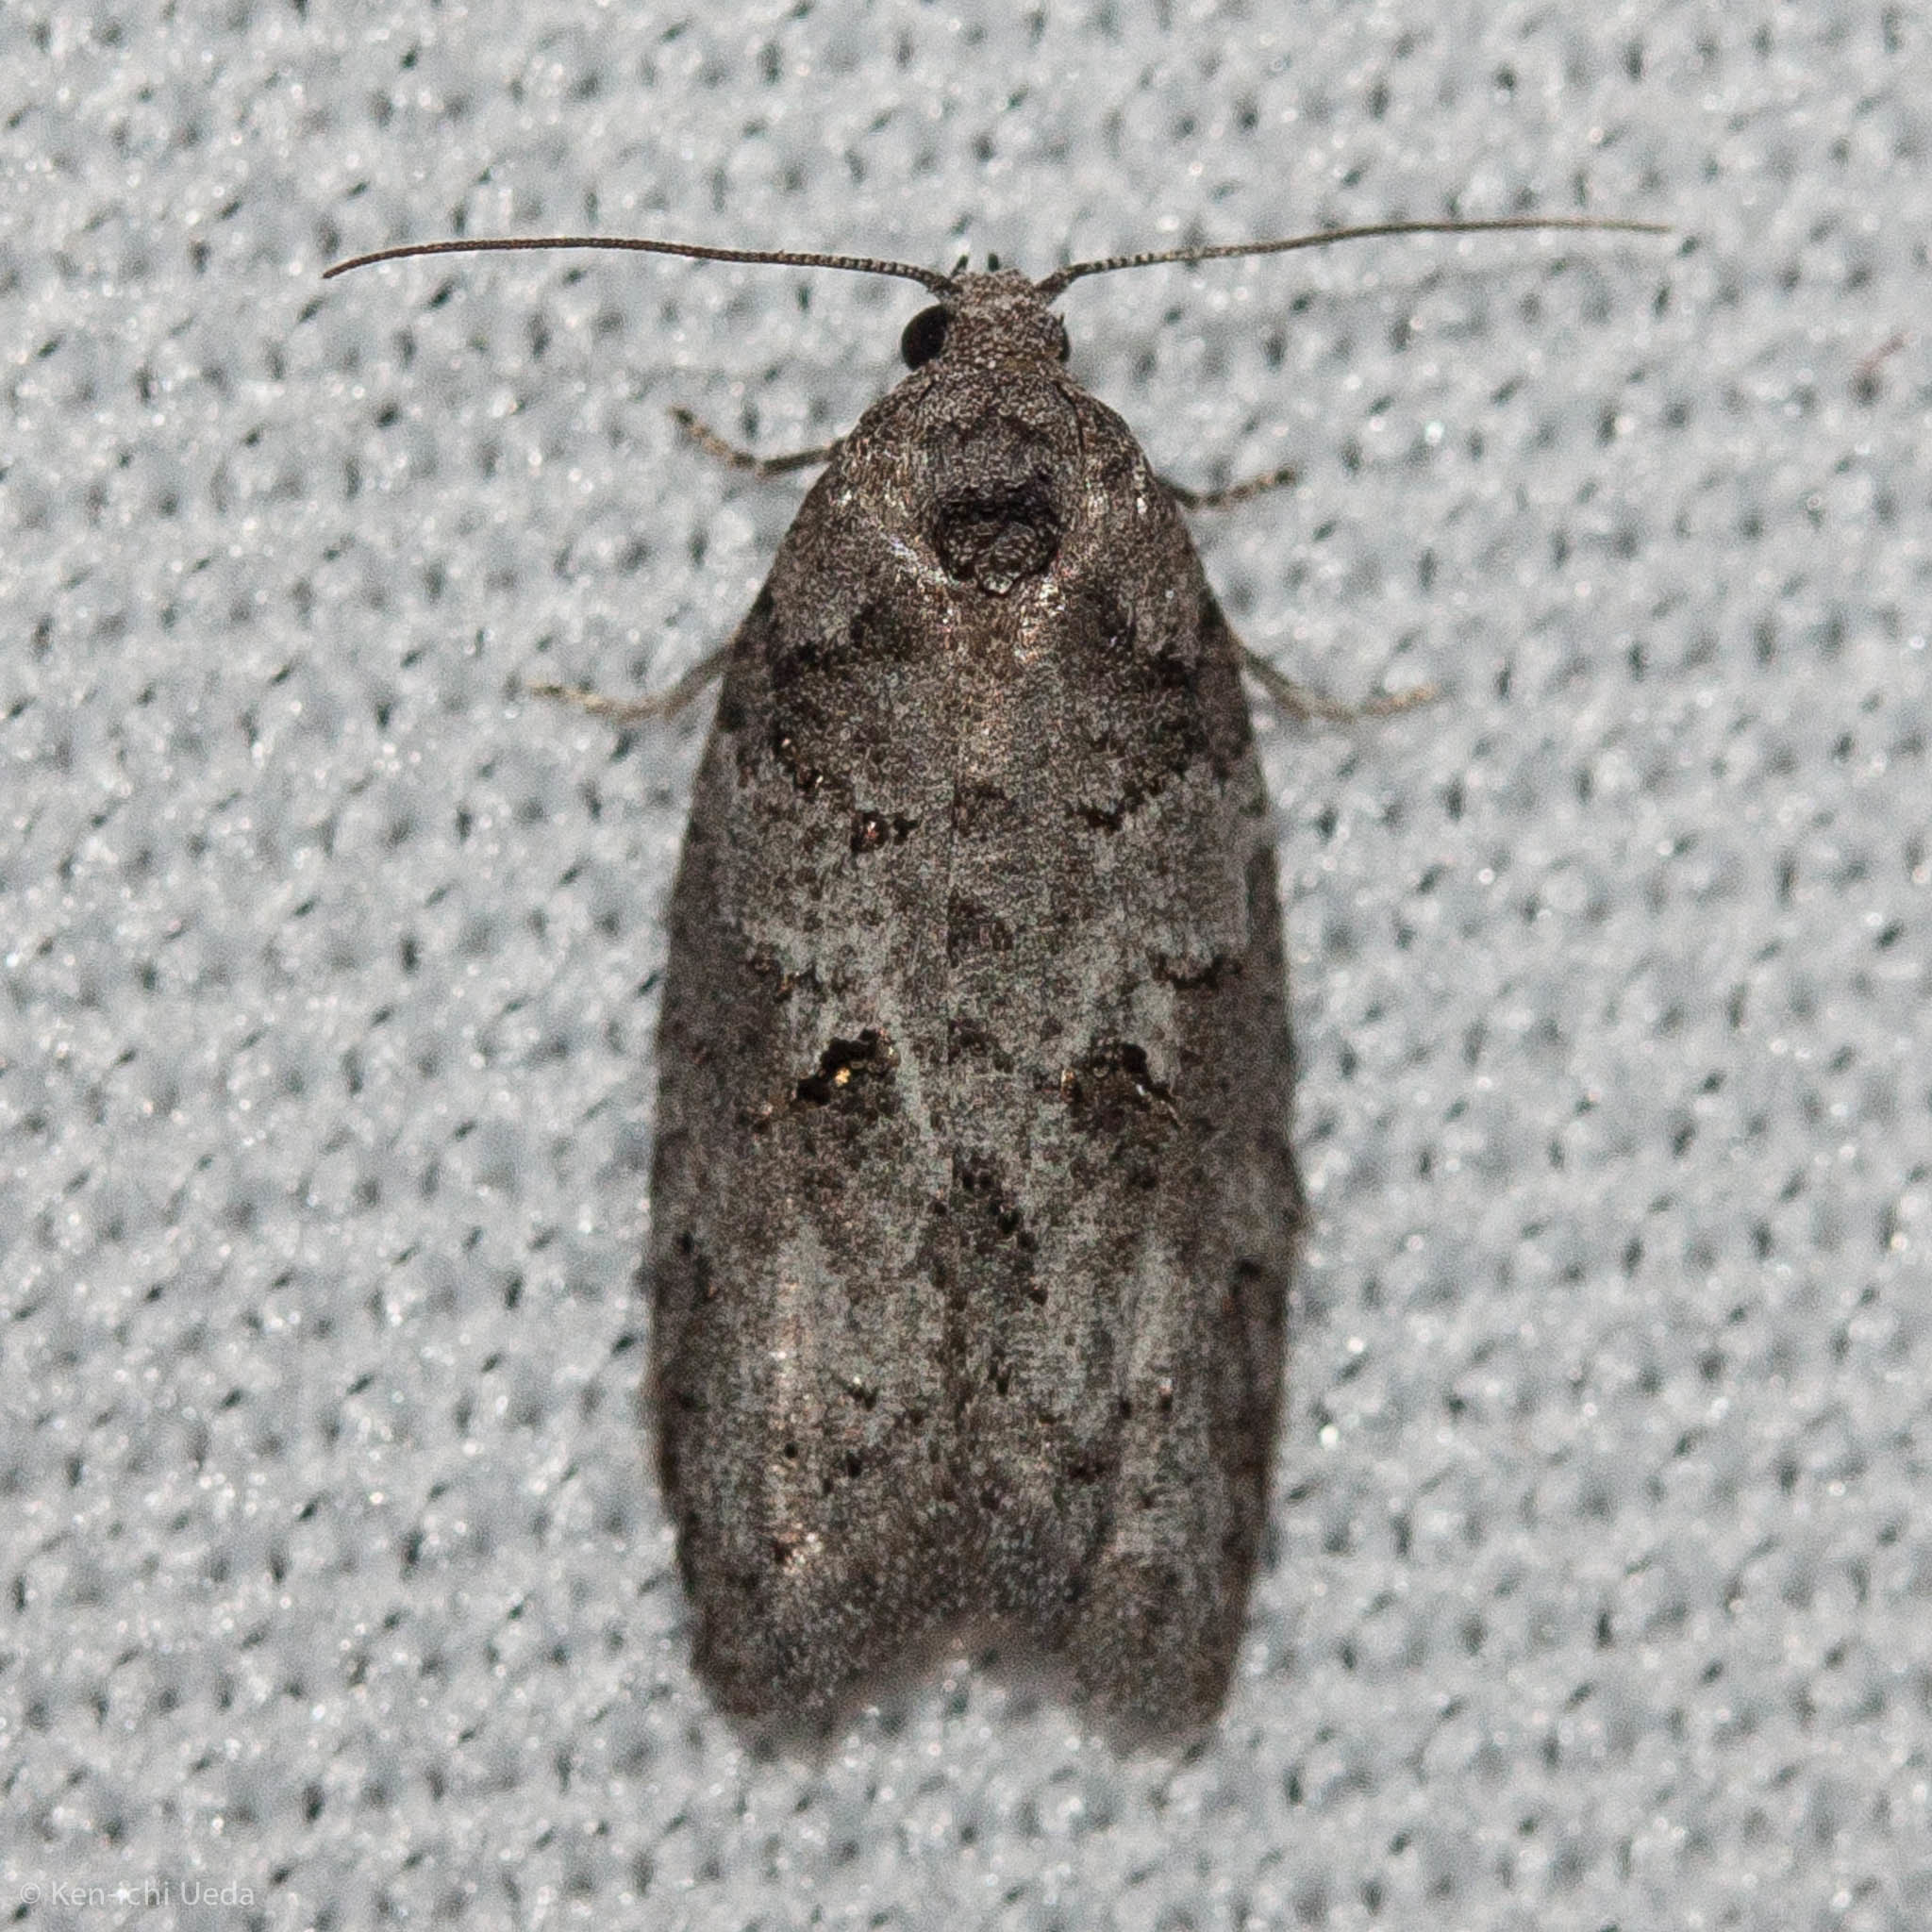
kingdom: Animalia
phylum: Arthropoda
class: Insecta
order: Lepidoptera
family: Tortricidae
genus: Decodes
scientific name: Decodes basiplagana
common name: Gray-marked tortricid
